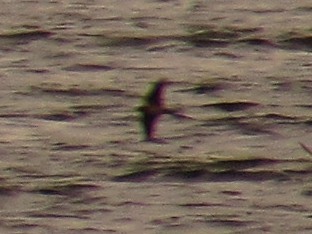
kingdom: Animalia
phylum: Chordata
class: Aves
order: Passeriformes
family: Hirundinidae
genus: Hirundo
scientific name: Hirundo rustica
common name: Barn swallow
